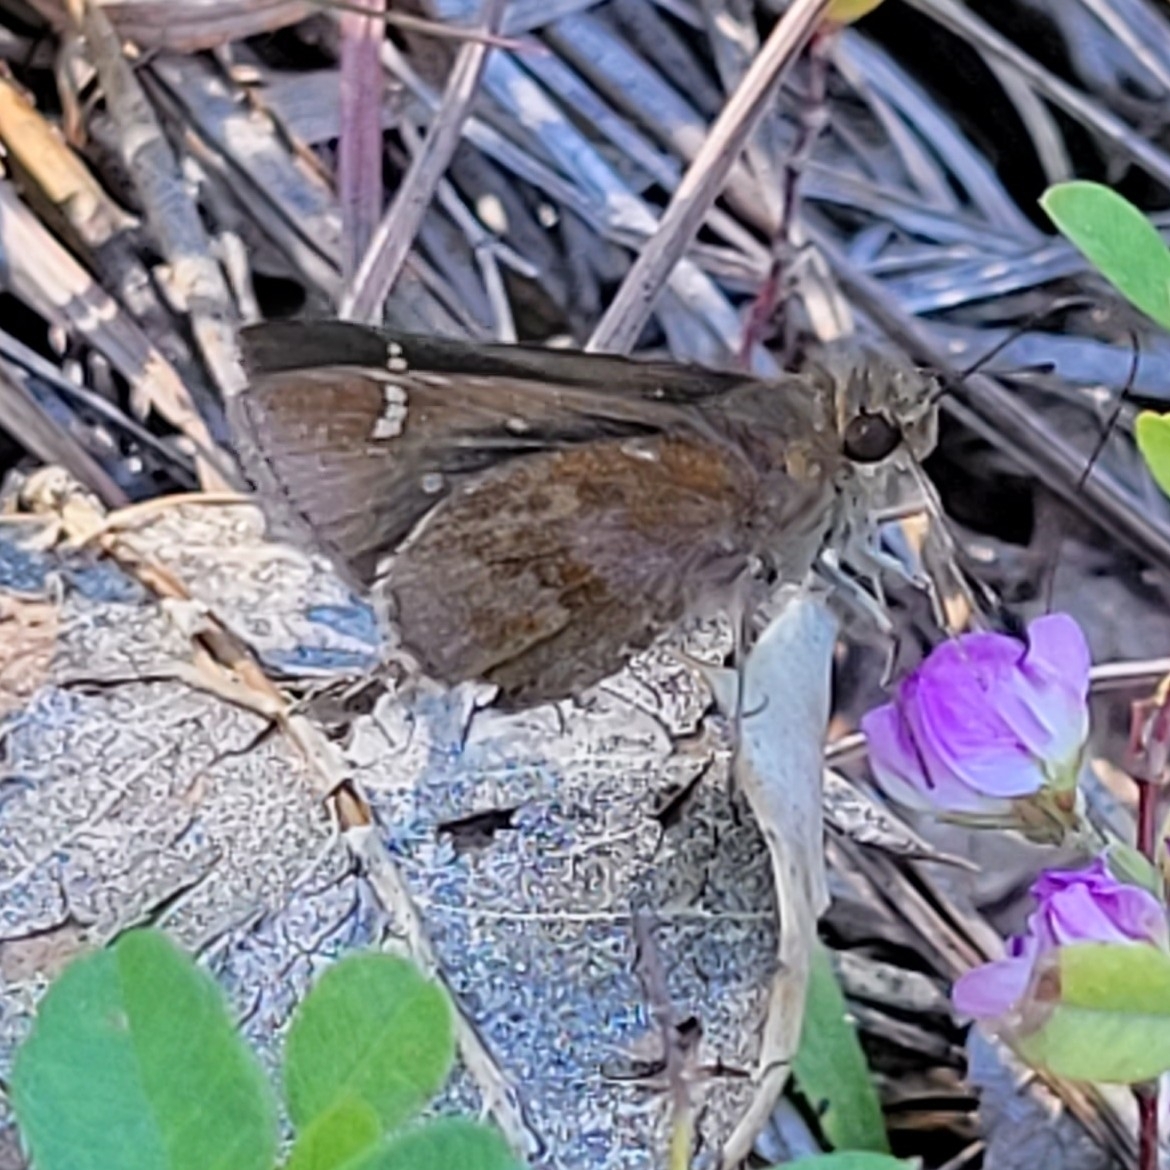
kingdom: Animalia
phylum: Arthropoda
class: Insecta
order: Lepidoptera
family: Hesperiidae
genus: Lerema
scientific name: Lerema accius
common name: Clouded skipper
